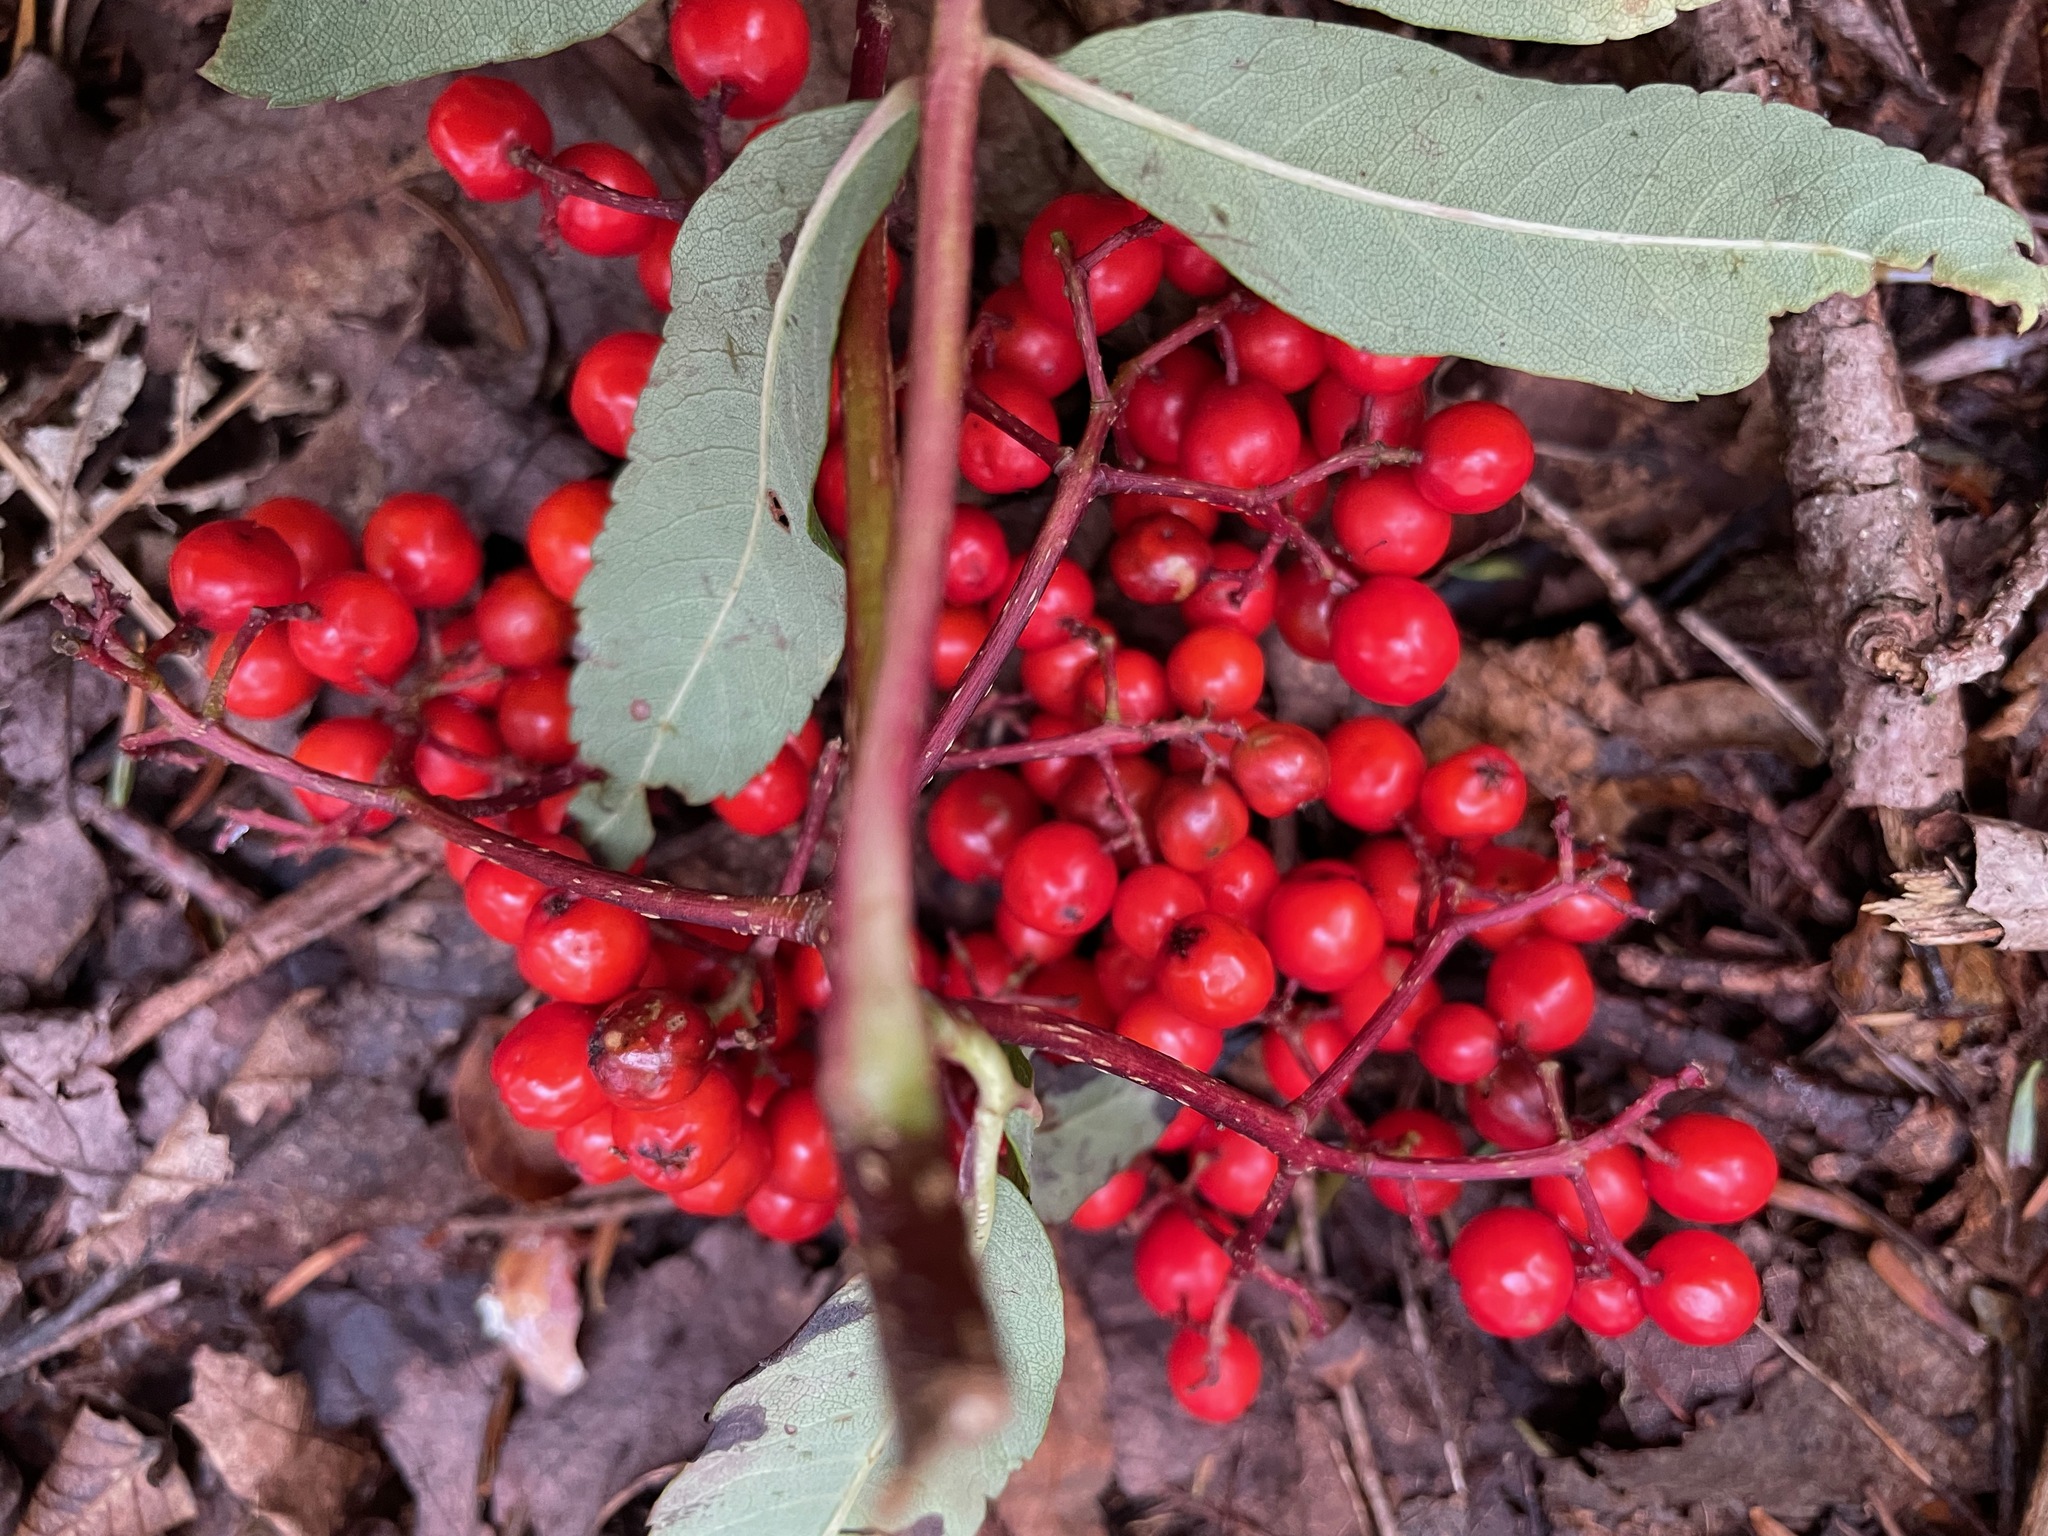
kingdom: Plantae
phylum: Tracheophyta
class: Magnoliopsida
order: Rosales
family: Rosaceae
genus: Sorbus
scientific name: Sorbus americana
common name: American mountain-ash
